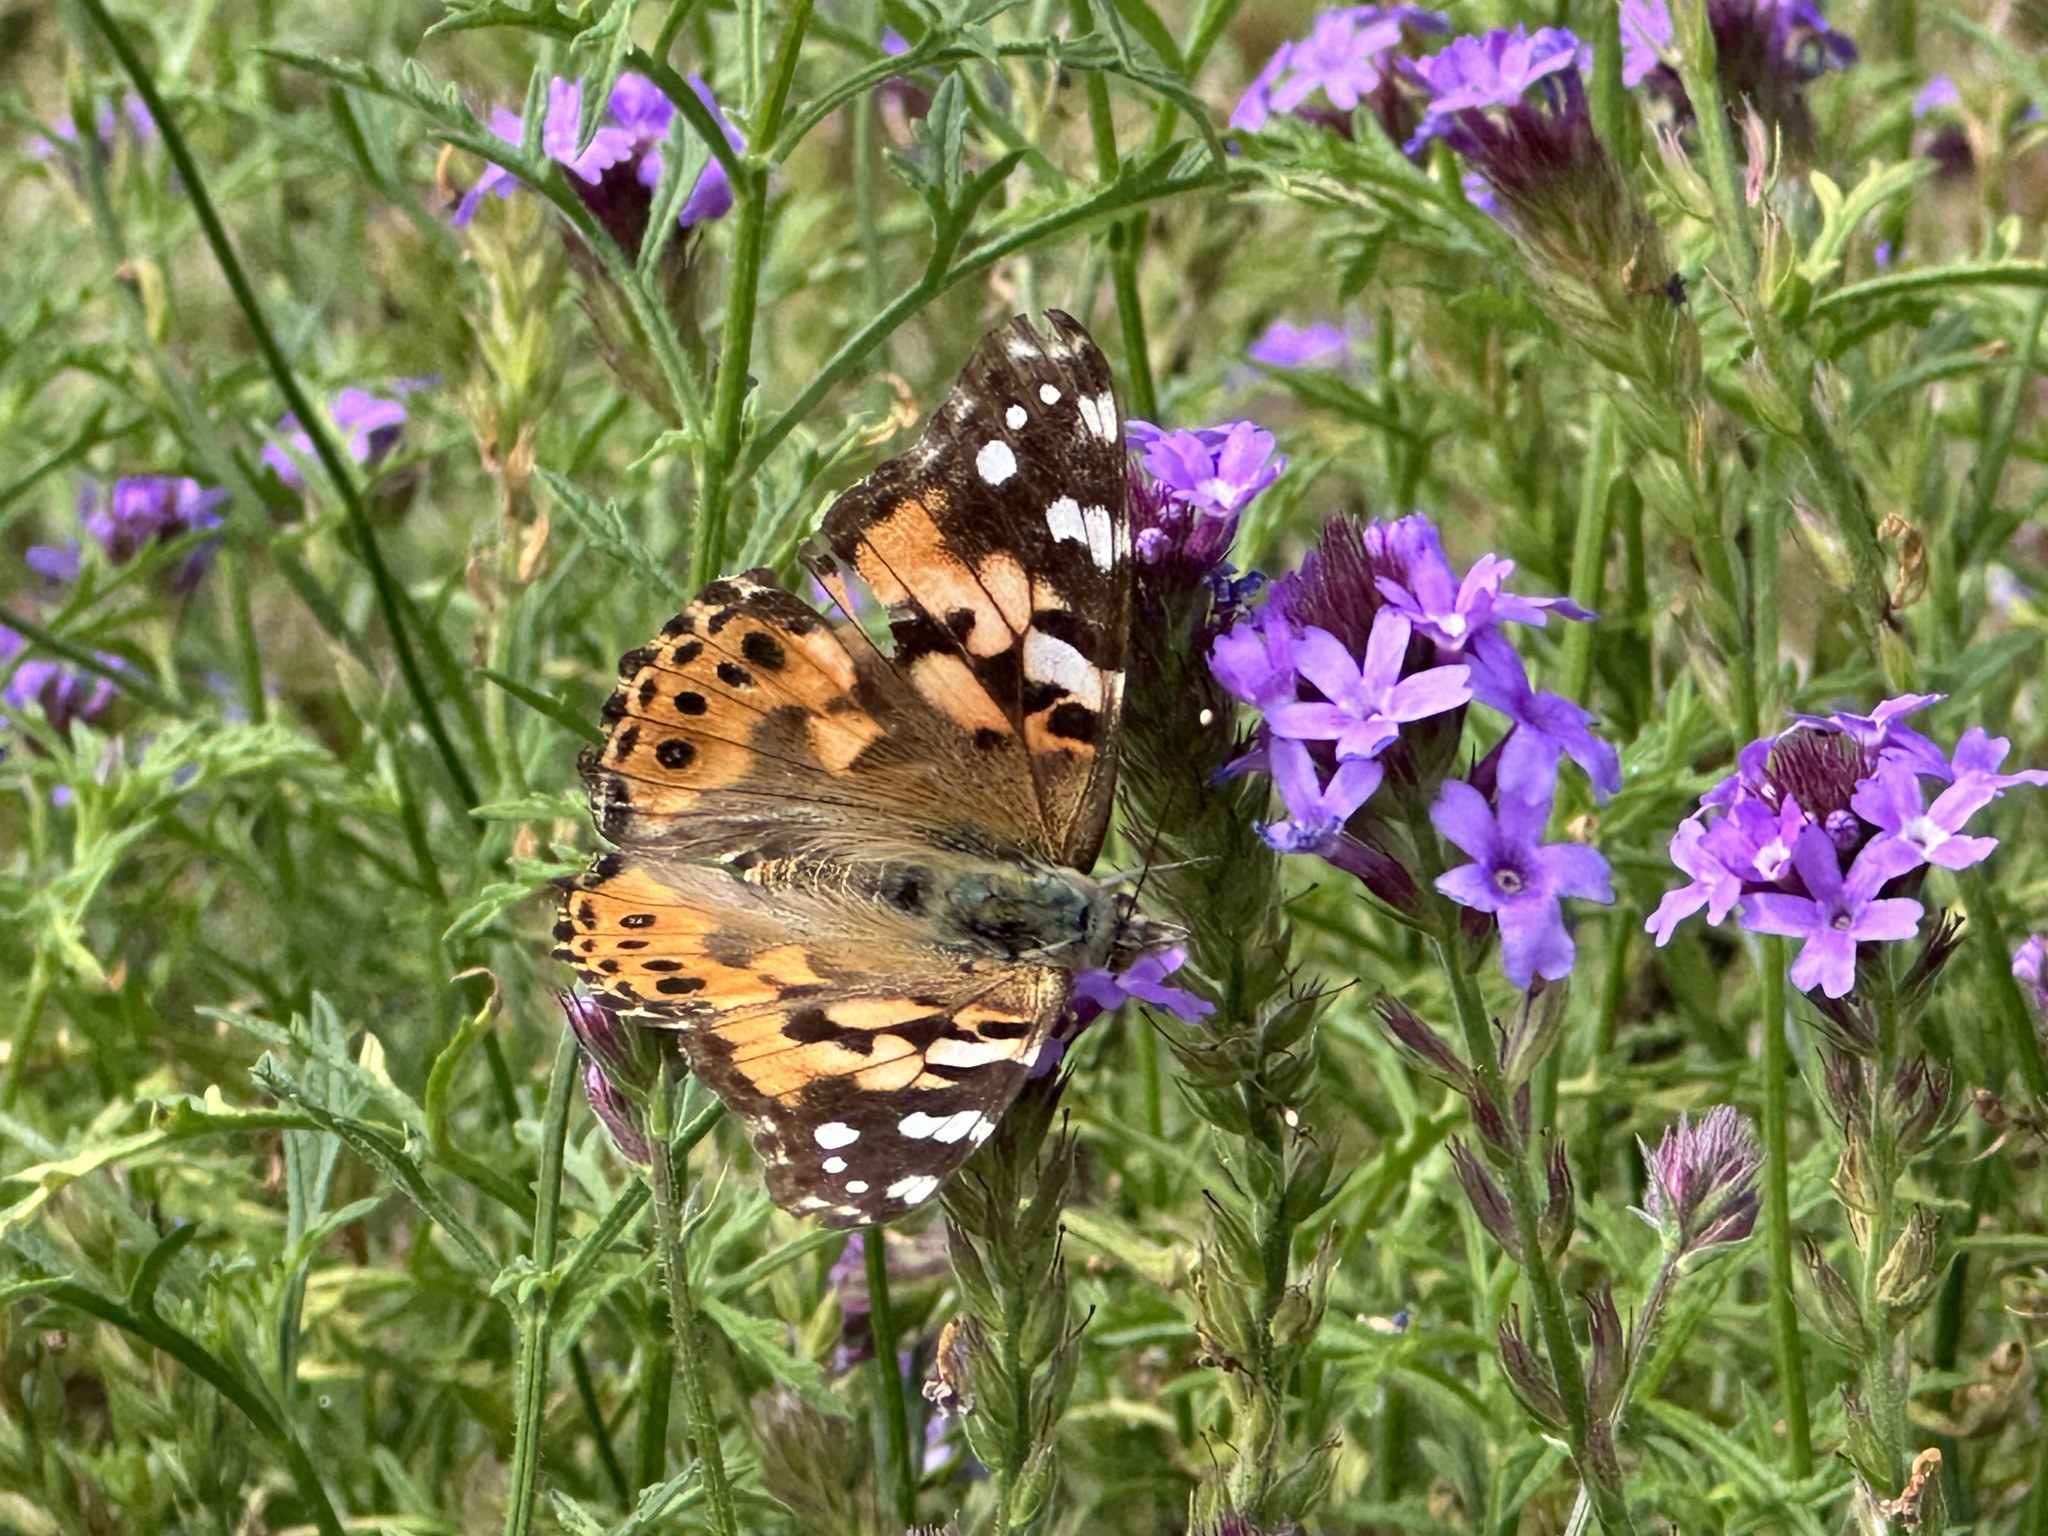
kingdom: Animalia
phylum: Arthropoda
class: Insecta
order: Lepidoptera
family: Nymphalidae
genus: Vanessa
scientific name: Vanessa cardui
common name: Painted lady
